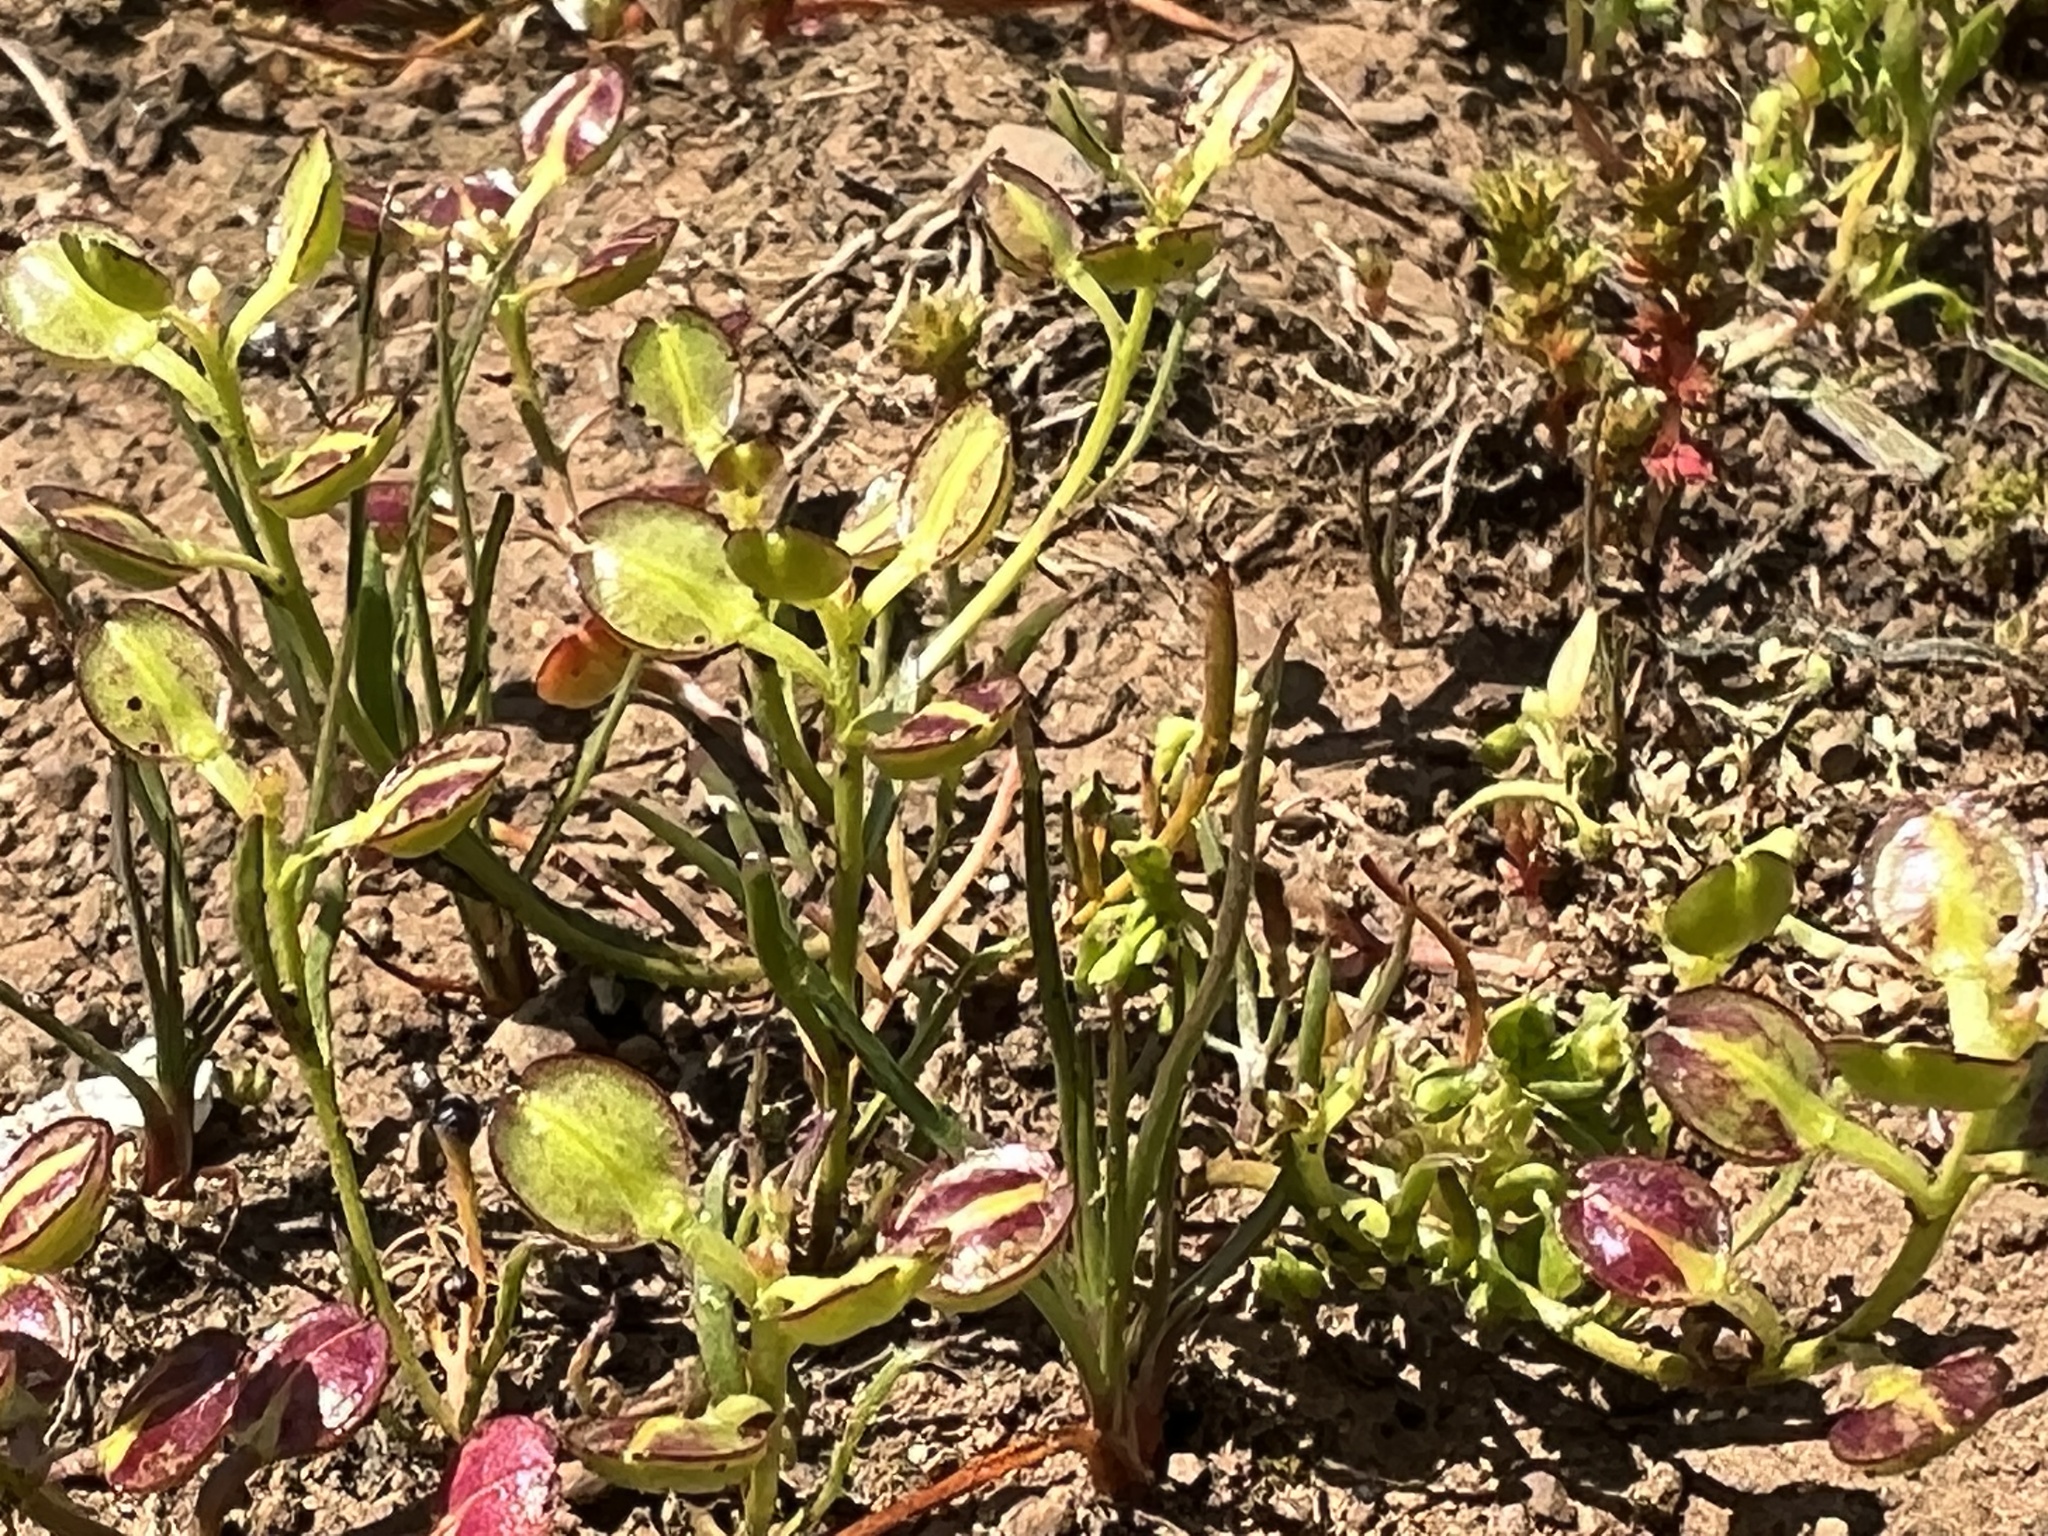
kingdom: Plantae
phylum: Tracheophyta
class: Magnoliopsida
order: Brassicales
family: Brassicaceae
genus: Lepidium
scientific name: Lepidium nitidum
